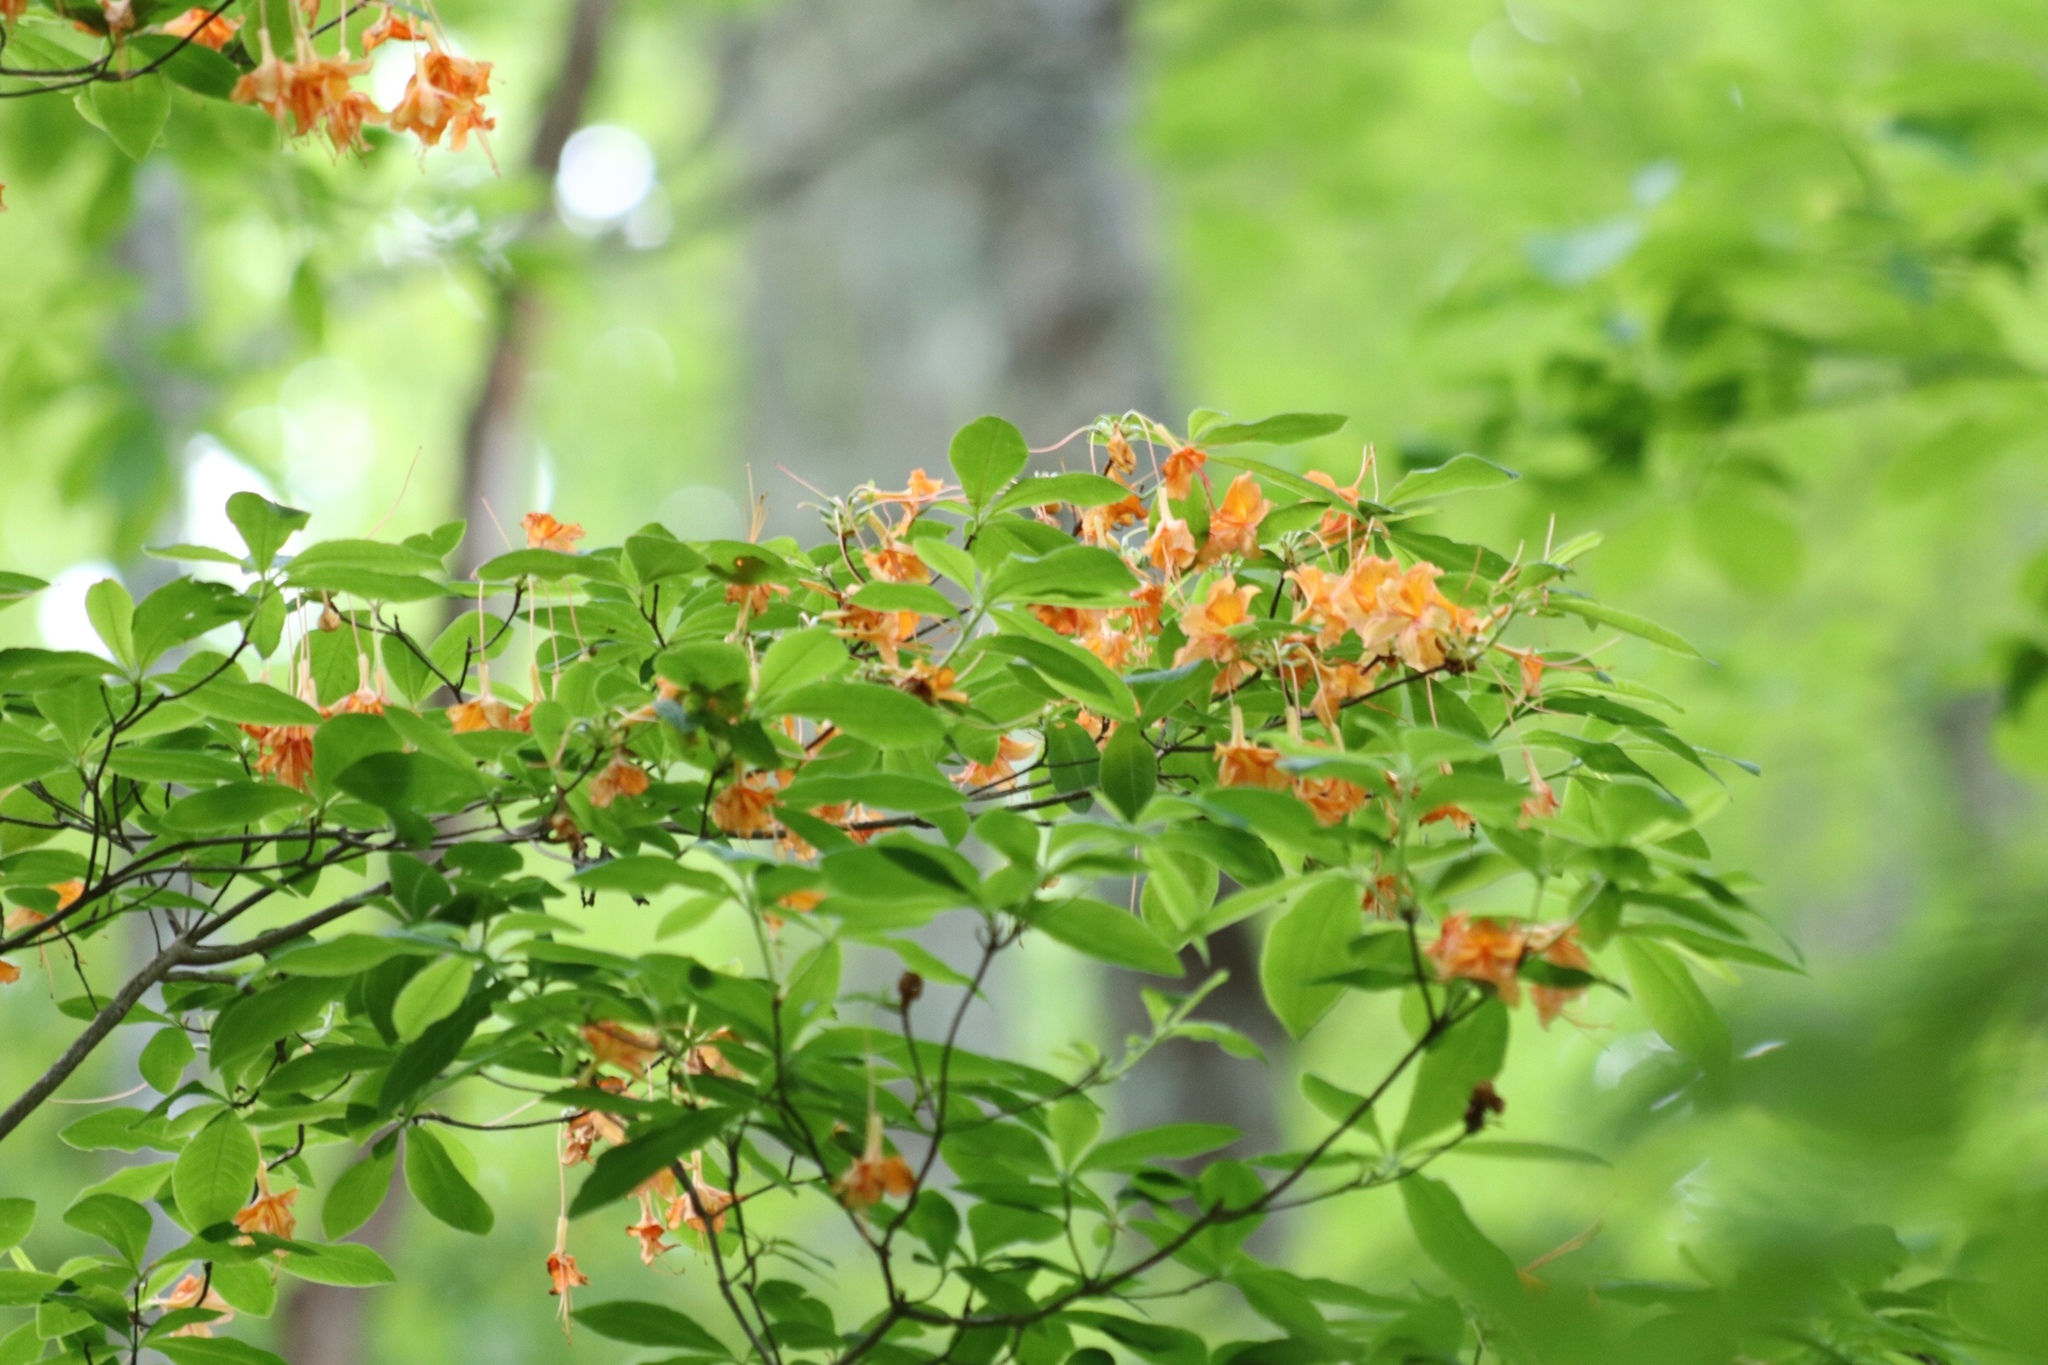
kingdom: Plantae
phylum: Tracheophyta
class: Magnoliopsida
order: Ericales
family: Ericaceae
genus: Rhododendron
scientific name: Rhododendron calendulaceum
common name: Flame azalea
